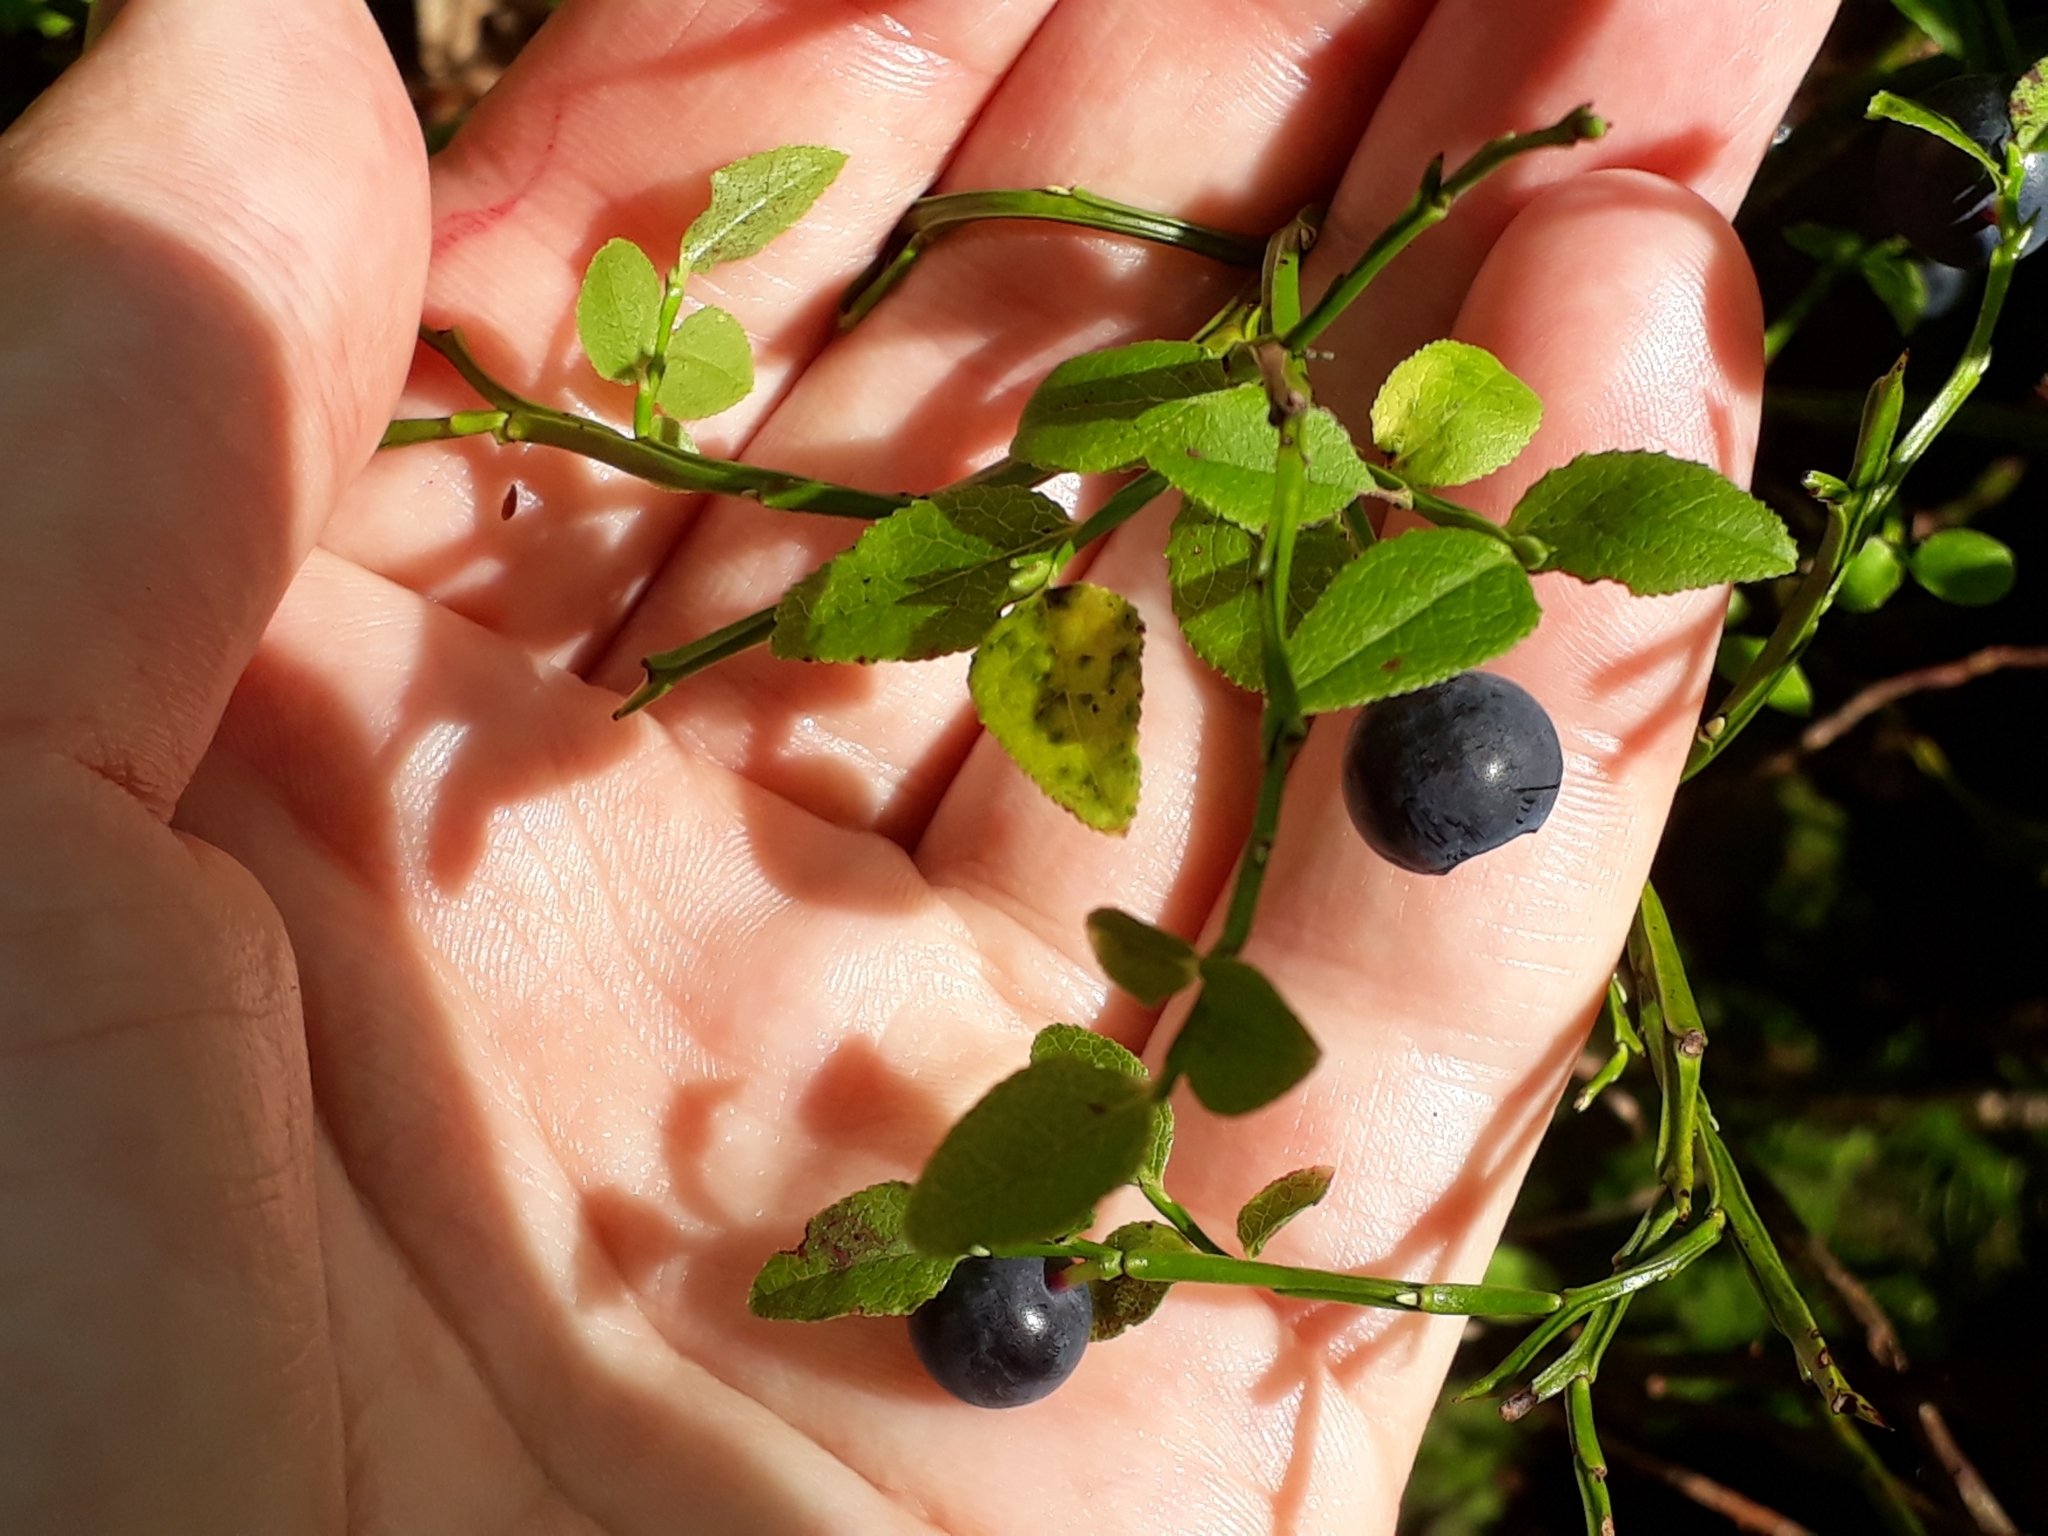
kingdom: Plantae
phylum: Tracheophyta
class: Magnoliopsida
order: Ericales
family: Ericaceae
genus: Vaccinium
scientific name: Vaccinium myrtillus
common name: Bilberry
